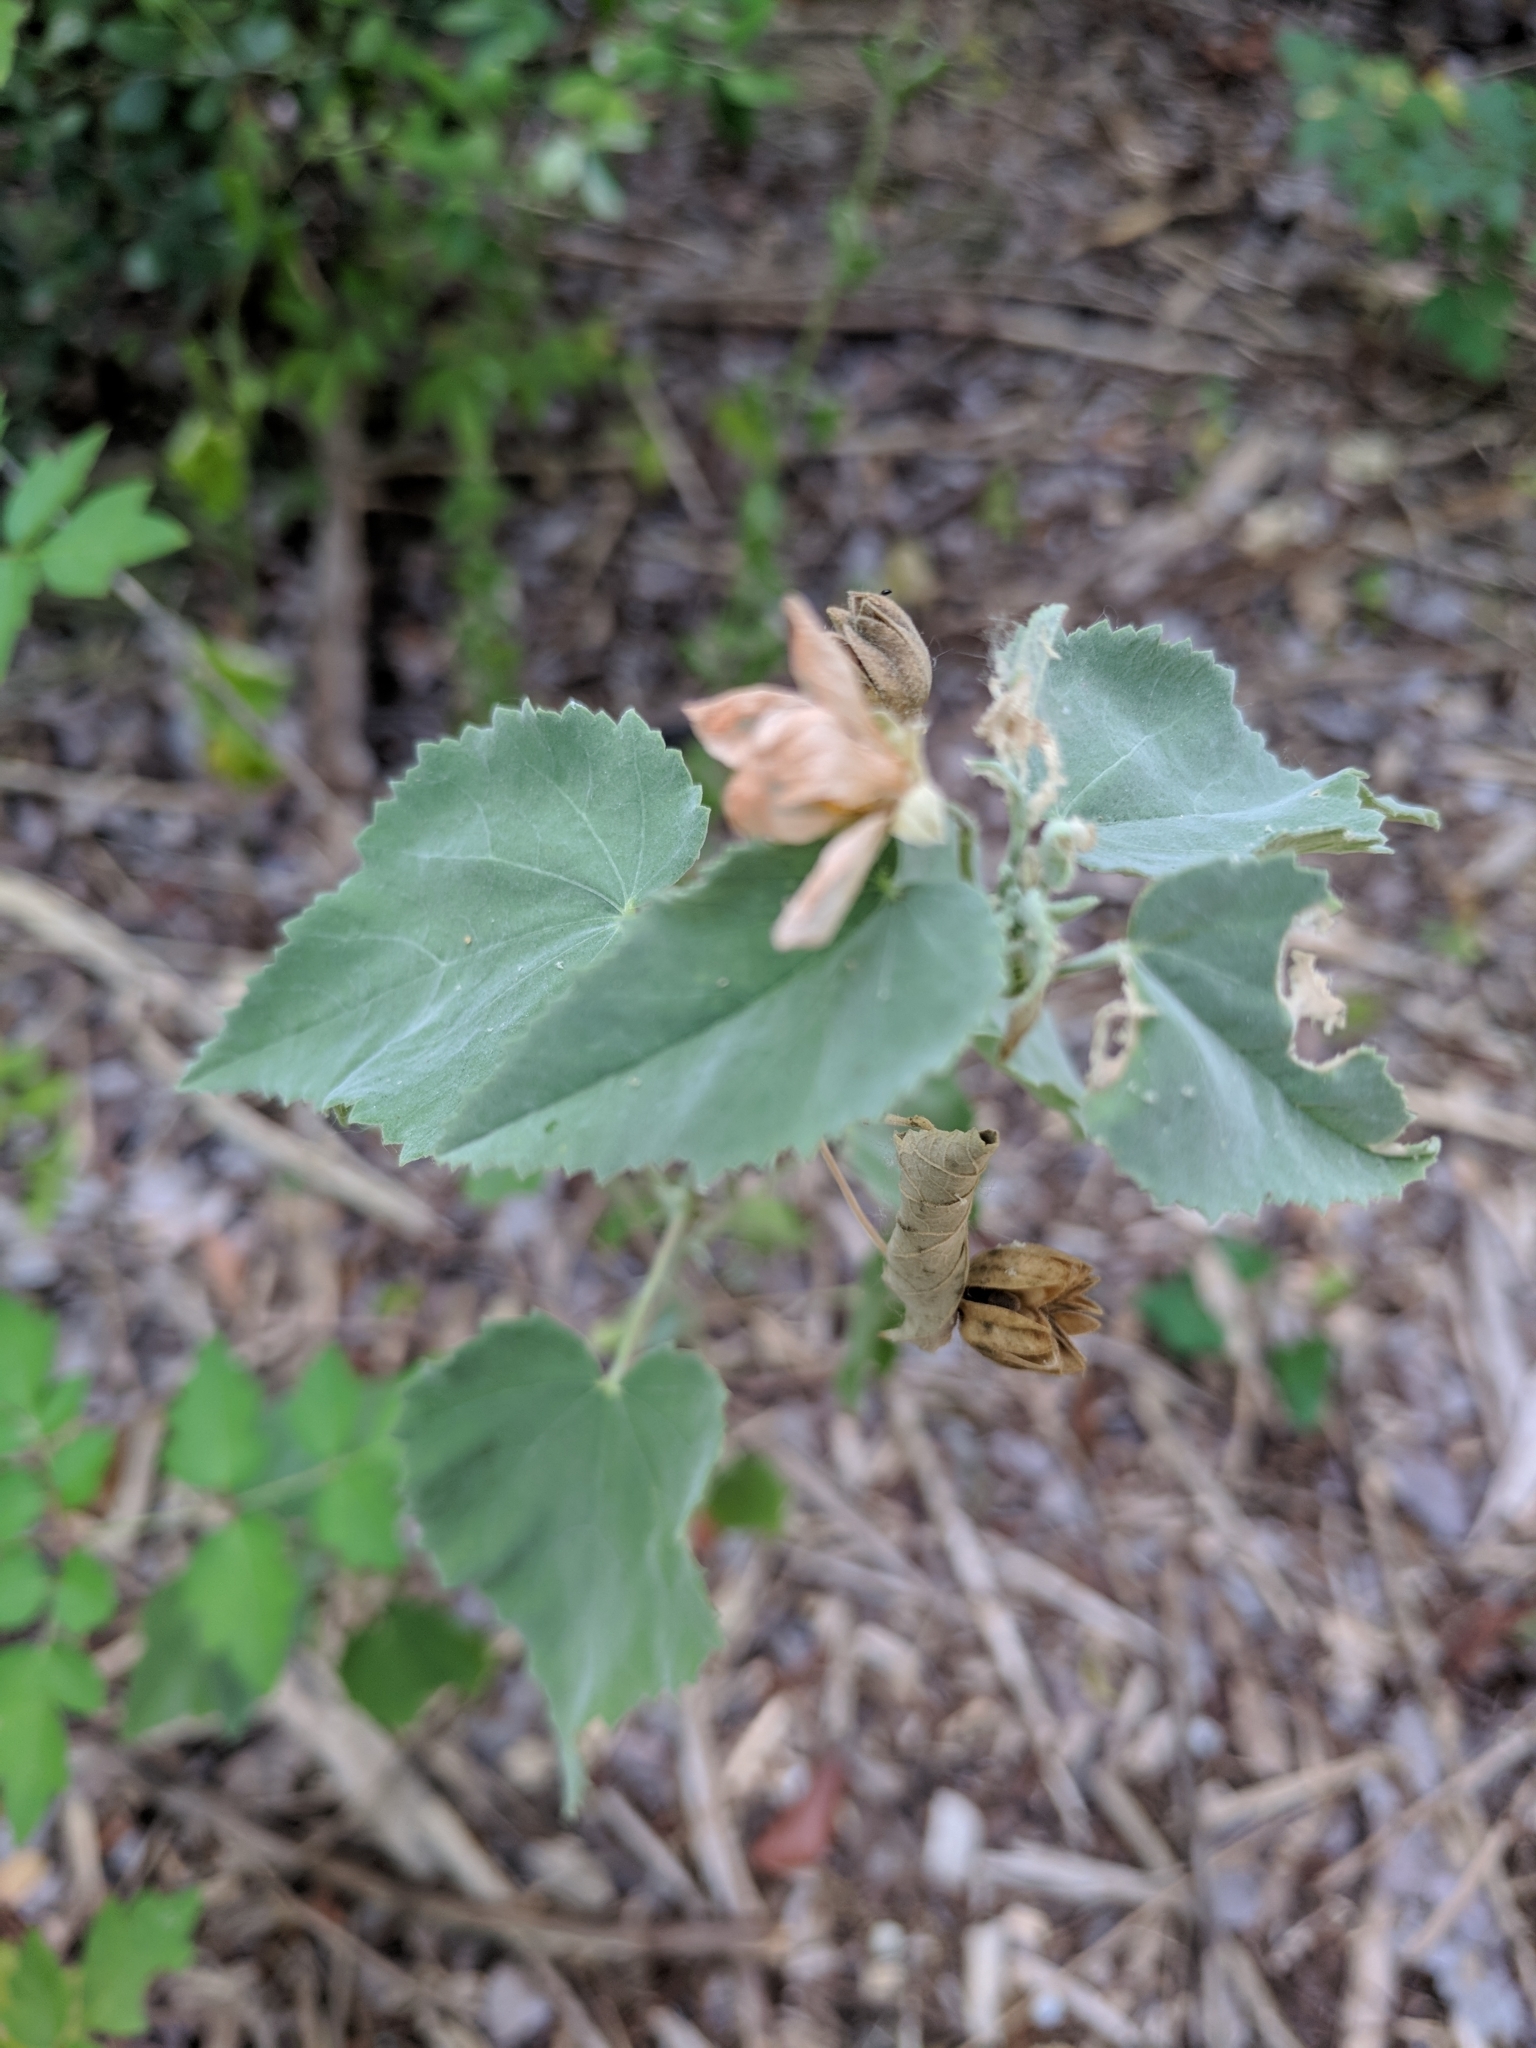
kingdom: Plantae
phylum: Tracheophyta
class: Magnoliopsida
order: Malvales
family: Malvaceae
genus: Abutilon
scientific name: Abutilon fruticosum
